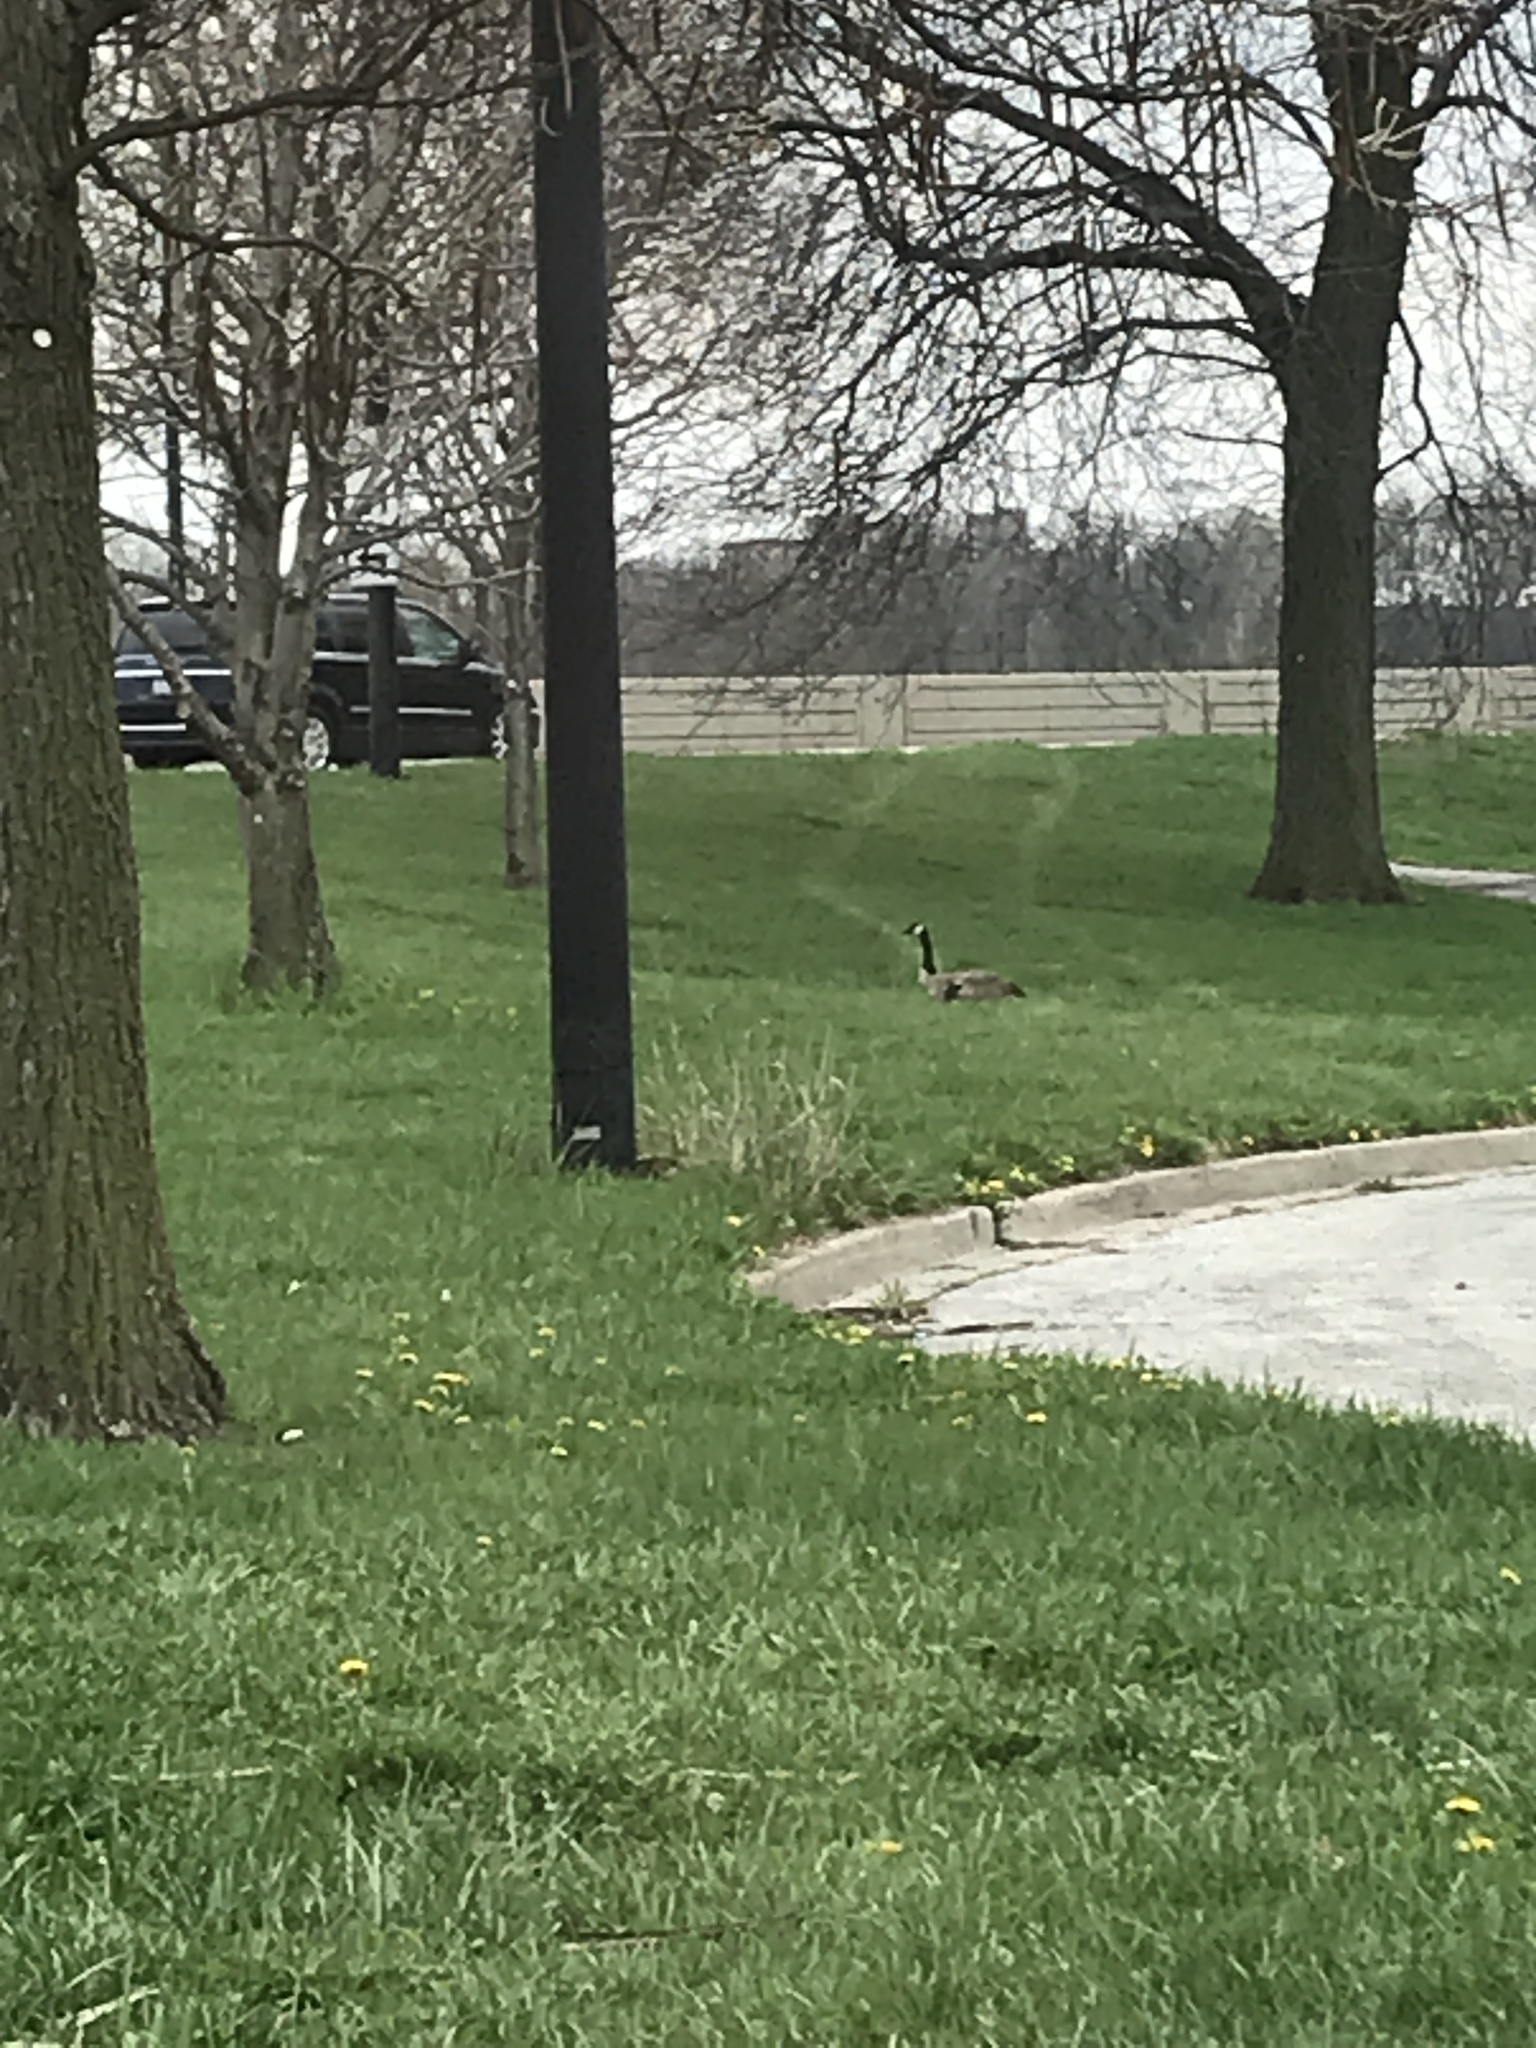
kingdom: Animalia
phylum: Chordata
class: Aves
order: Anseriformes
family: Anatidae
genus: Branta
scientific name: Branta canadensis
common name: Canada goose
